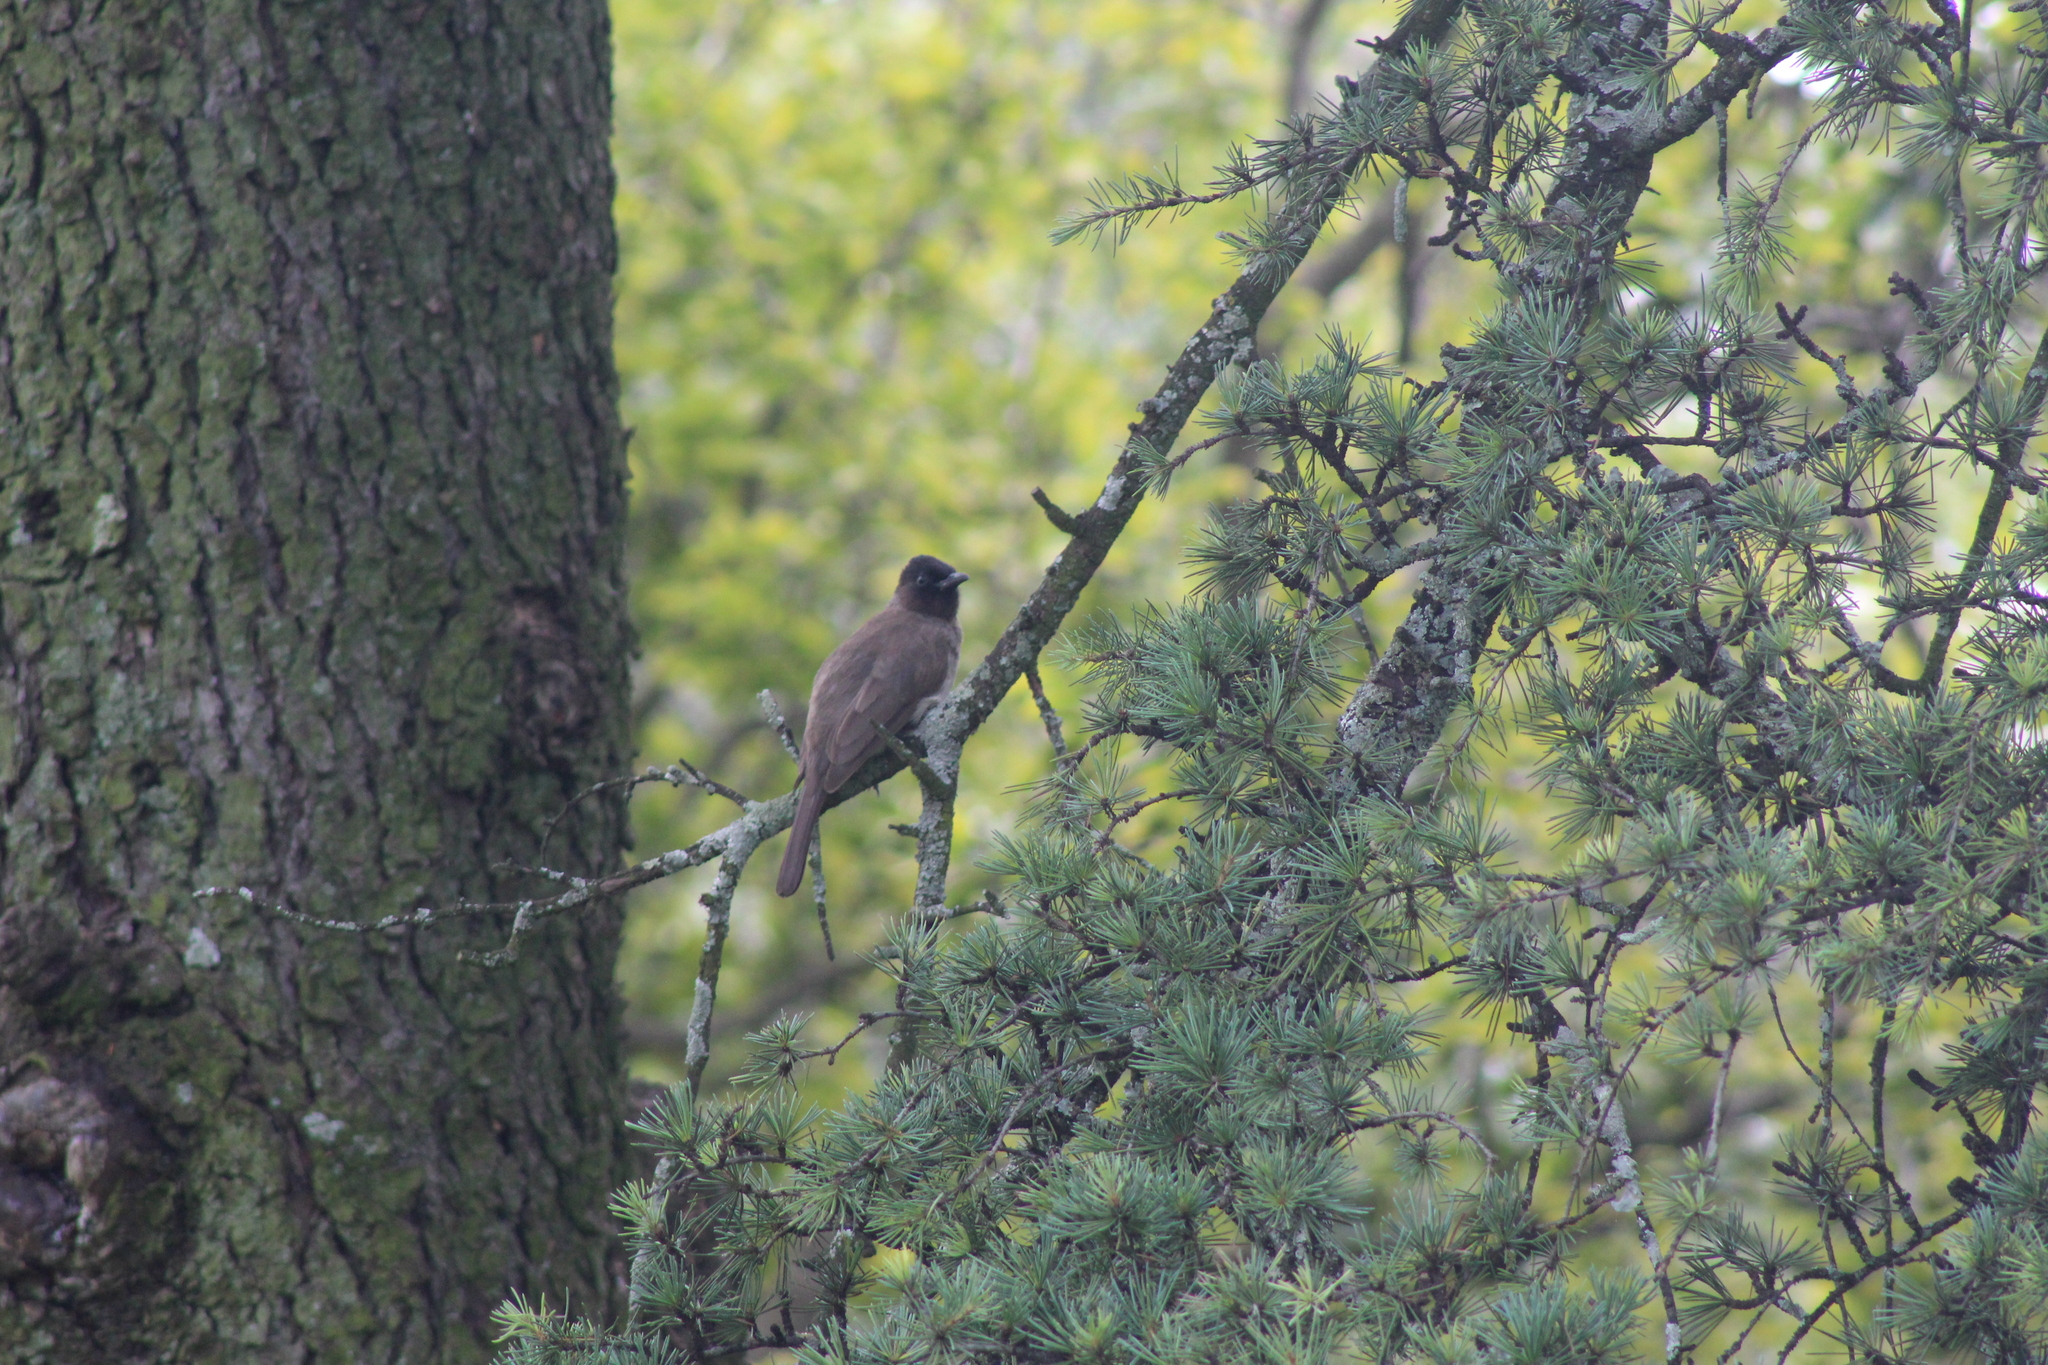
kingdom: Animalia
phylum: Chordata
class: Aves
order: Passeriformes
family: Pycnonotidae
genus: Pycnonotus
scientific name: Pycnonotus barbatus
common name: Common bulbul
